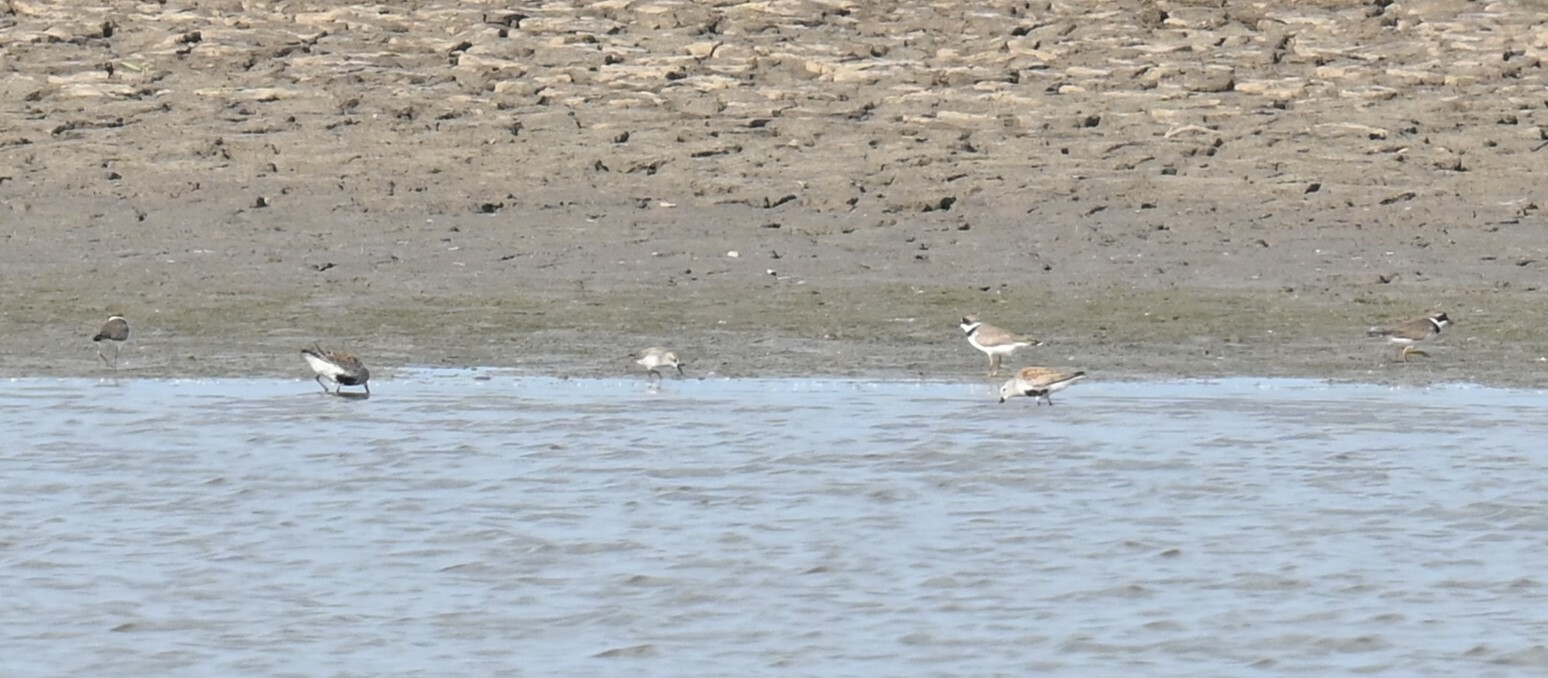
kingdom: Animalia
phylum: Chordata
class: Aves
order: Charadriiformes
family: Charadriidae
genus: Charadrius
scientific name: Charadrius semipalmatus
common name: Semipalmated plover
